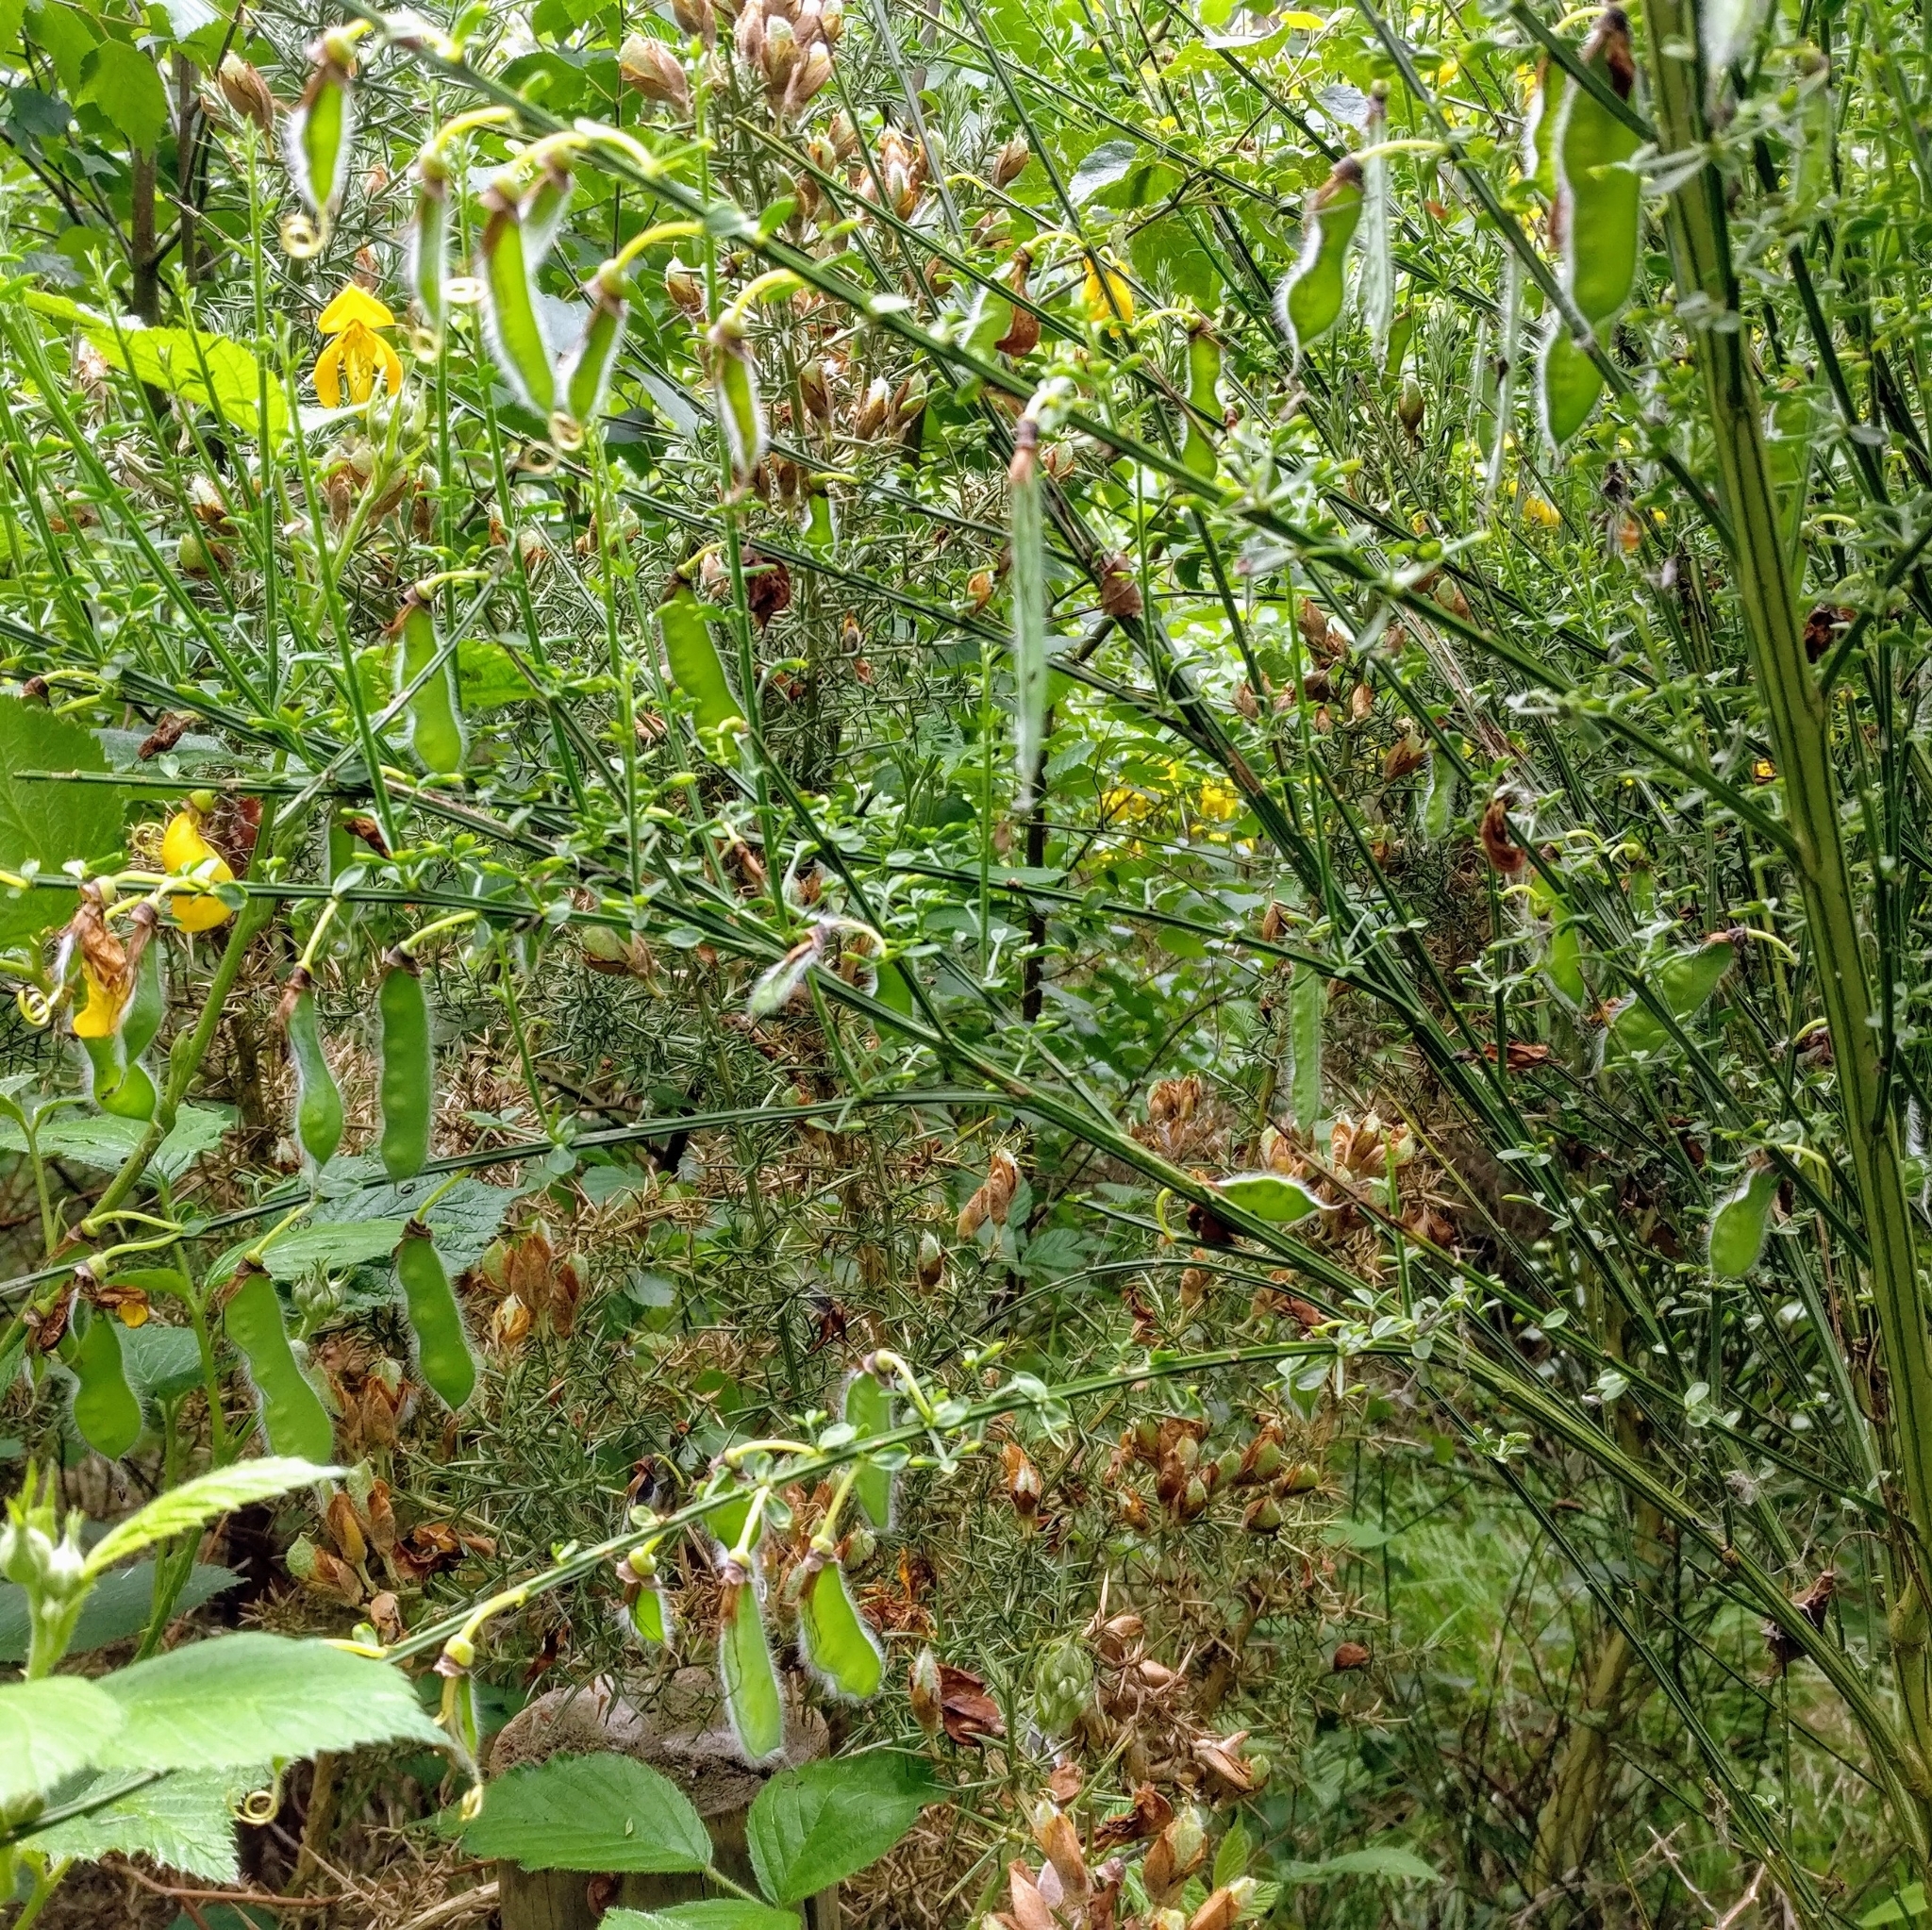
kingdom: Plantae
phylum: Tracheophyta
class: Magnoliopsida
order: Fabales
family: Fabaceae
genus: Cytisus
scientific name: Cytisus scoparius
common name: Scotch broom
